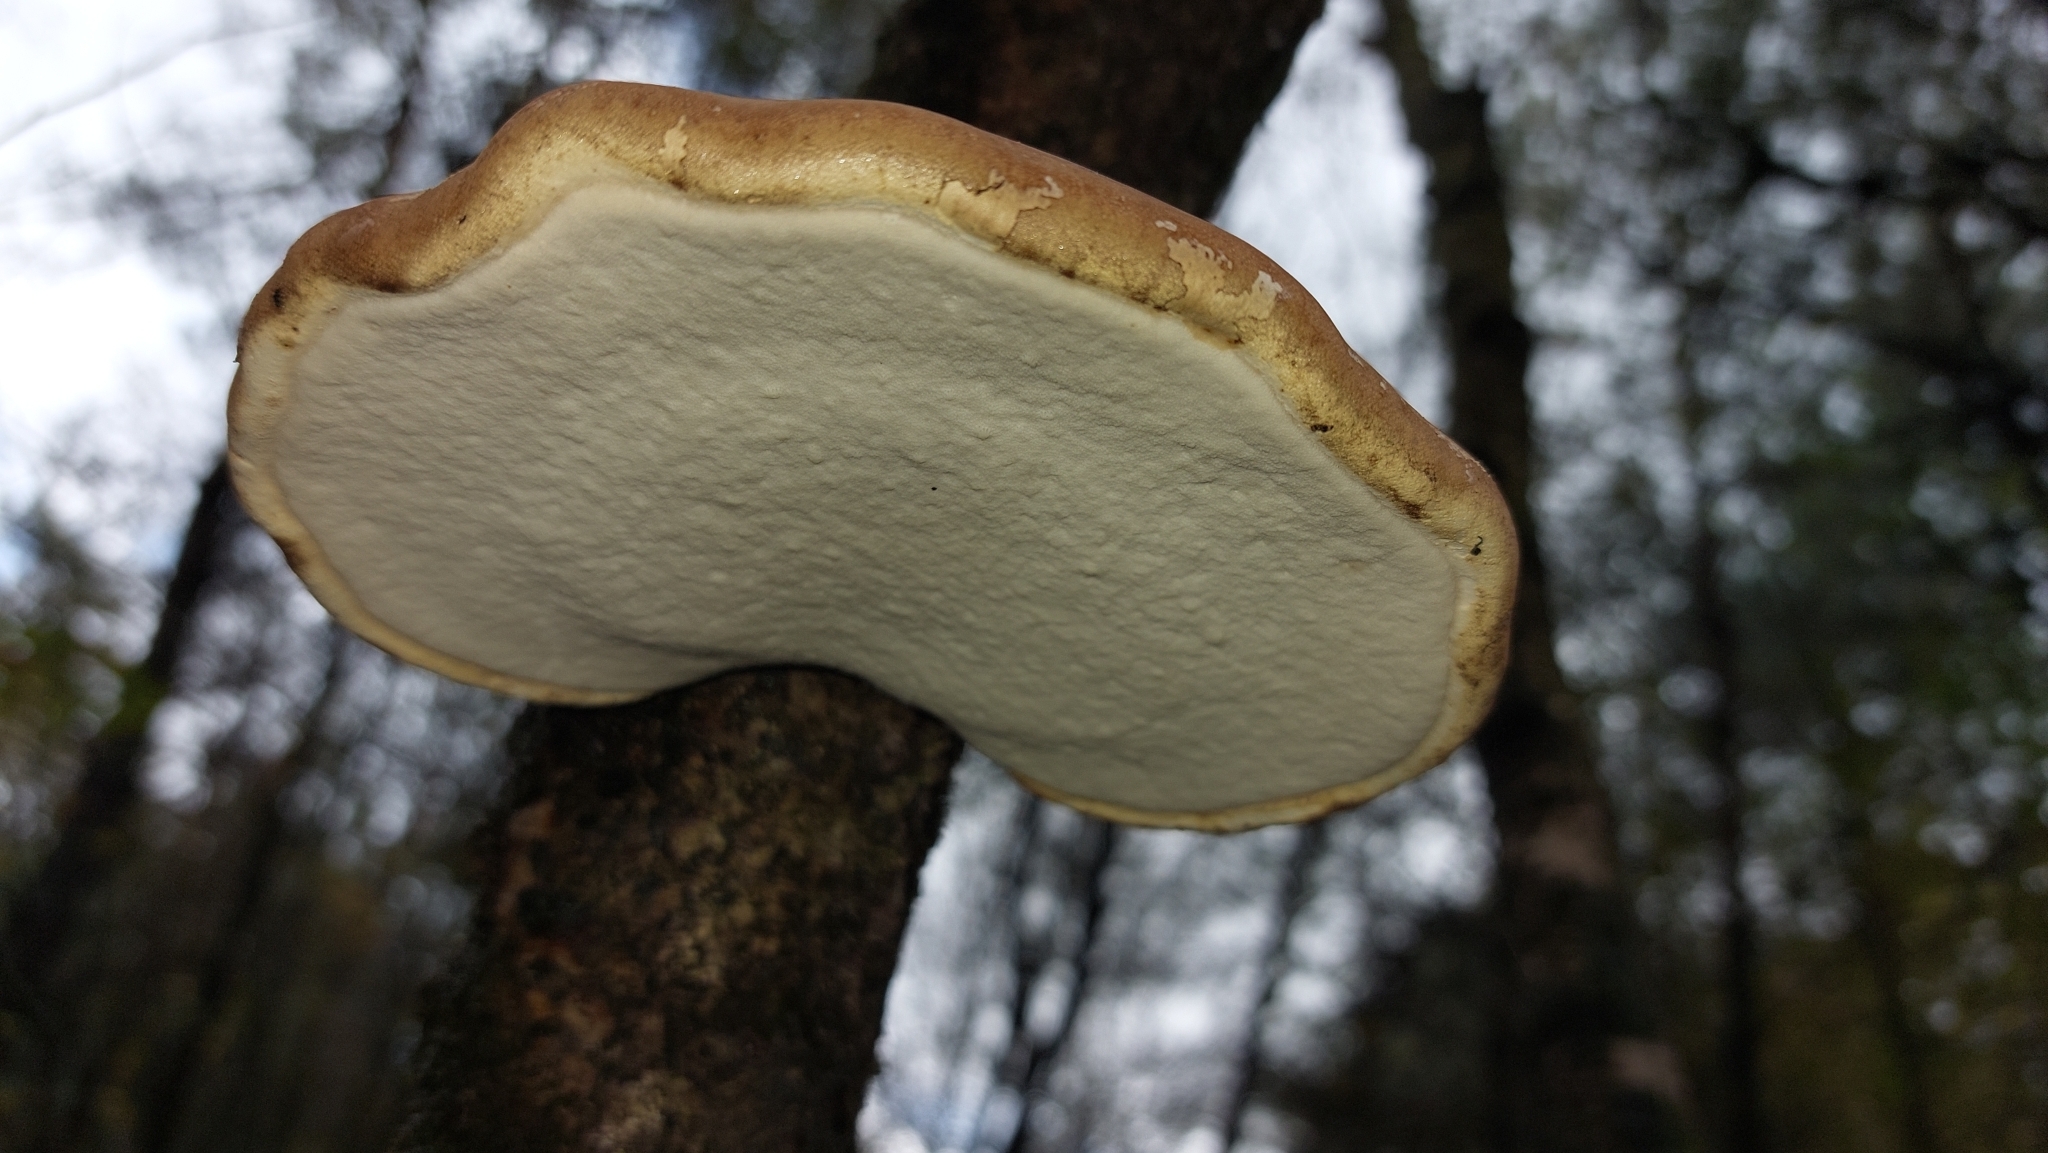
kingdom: Fungi
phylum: Basidiomycota
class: Agaricomycetes
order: Polyporales
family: Fomitopsidaceae
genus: Fomitopsis
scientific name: Fomitopsis betulina
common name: Birch polypore
